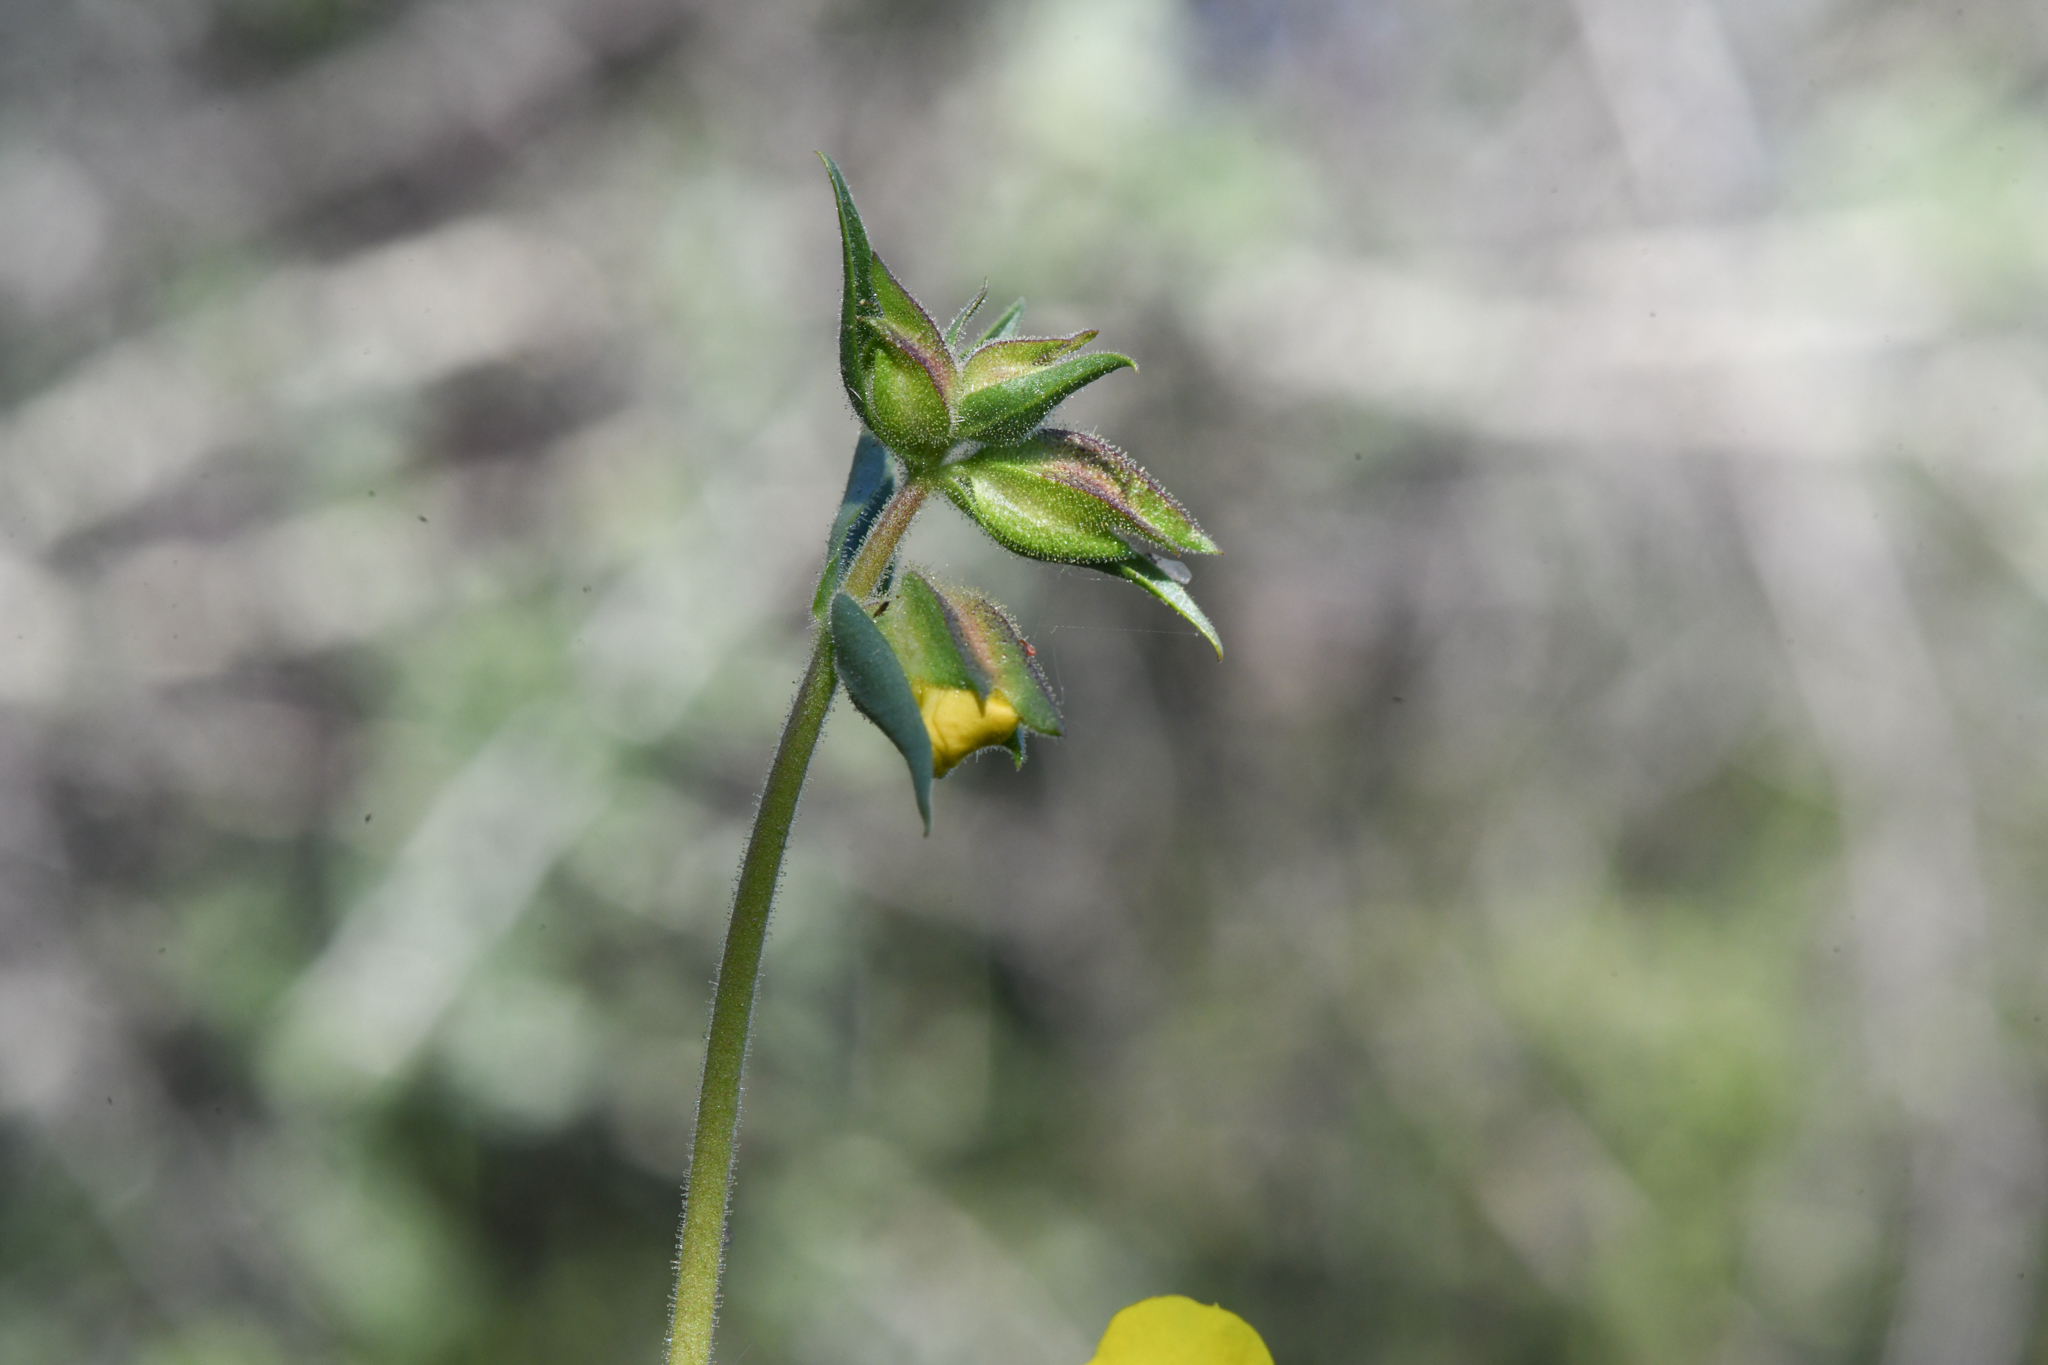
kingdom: Plantae
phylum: Tracheophyta
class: Magnoliopsida
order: Lamiales
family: Phrymaceae
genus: Diplacus
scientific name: Diplacus brevipes
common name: Wide-throat yellow monkey-flower
